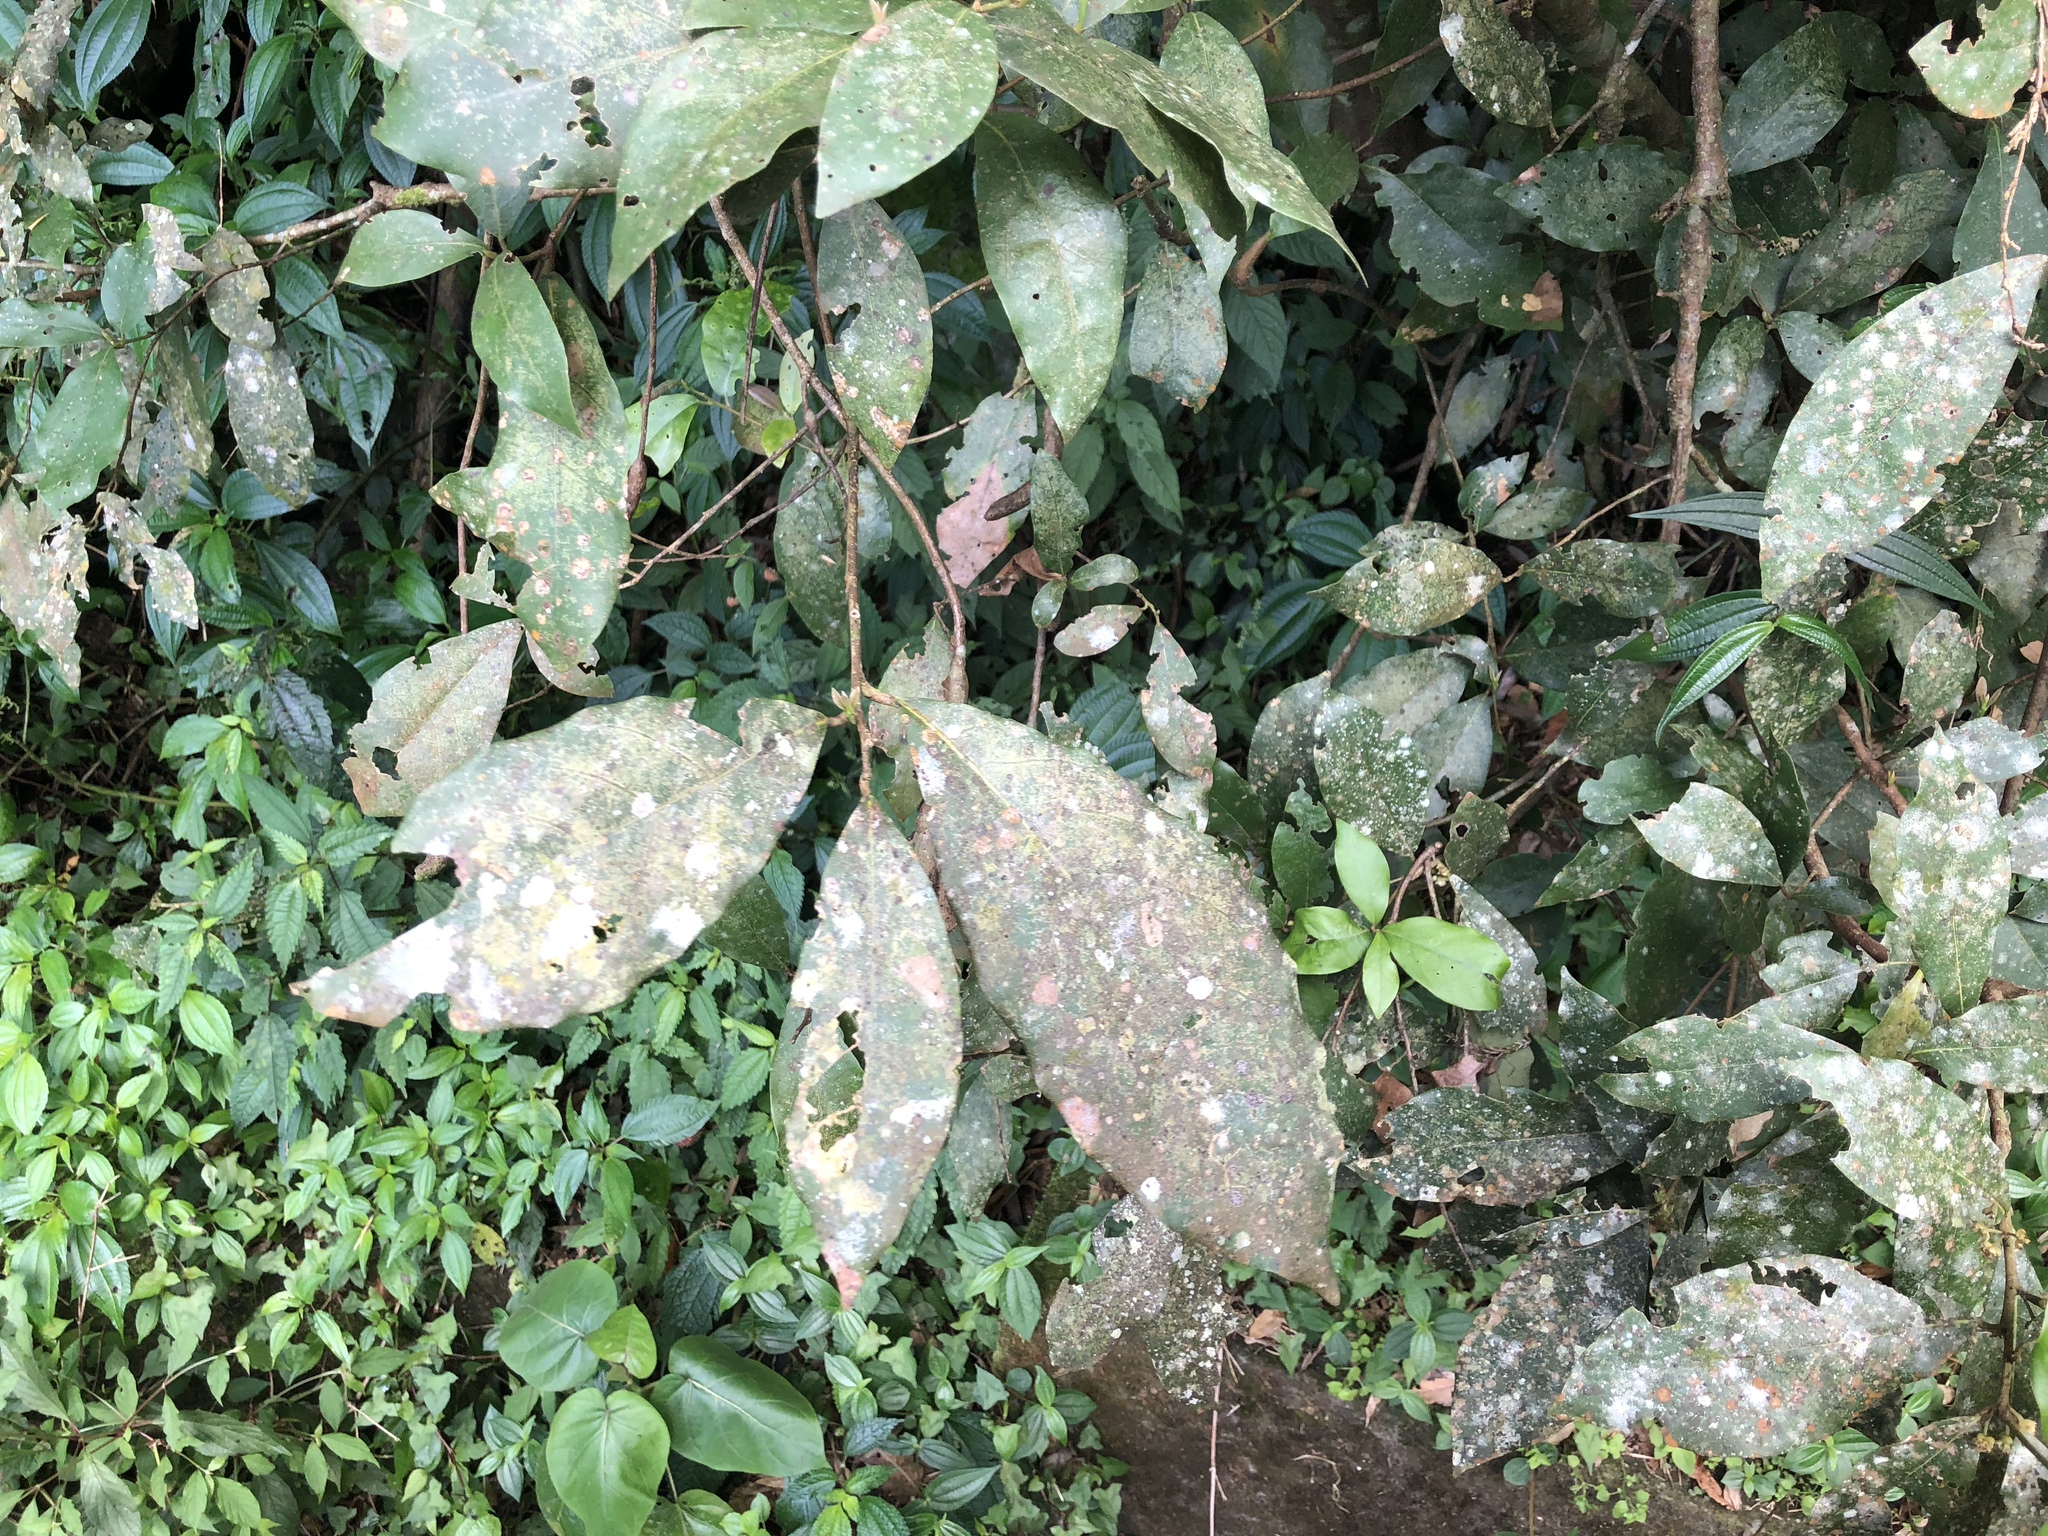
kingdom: Plantae
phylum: Tracheophyta
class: Magnoliopsida
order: Laurales
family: Lauraceae
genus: Litsea
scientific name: Litsea akoensis
